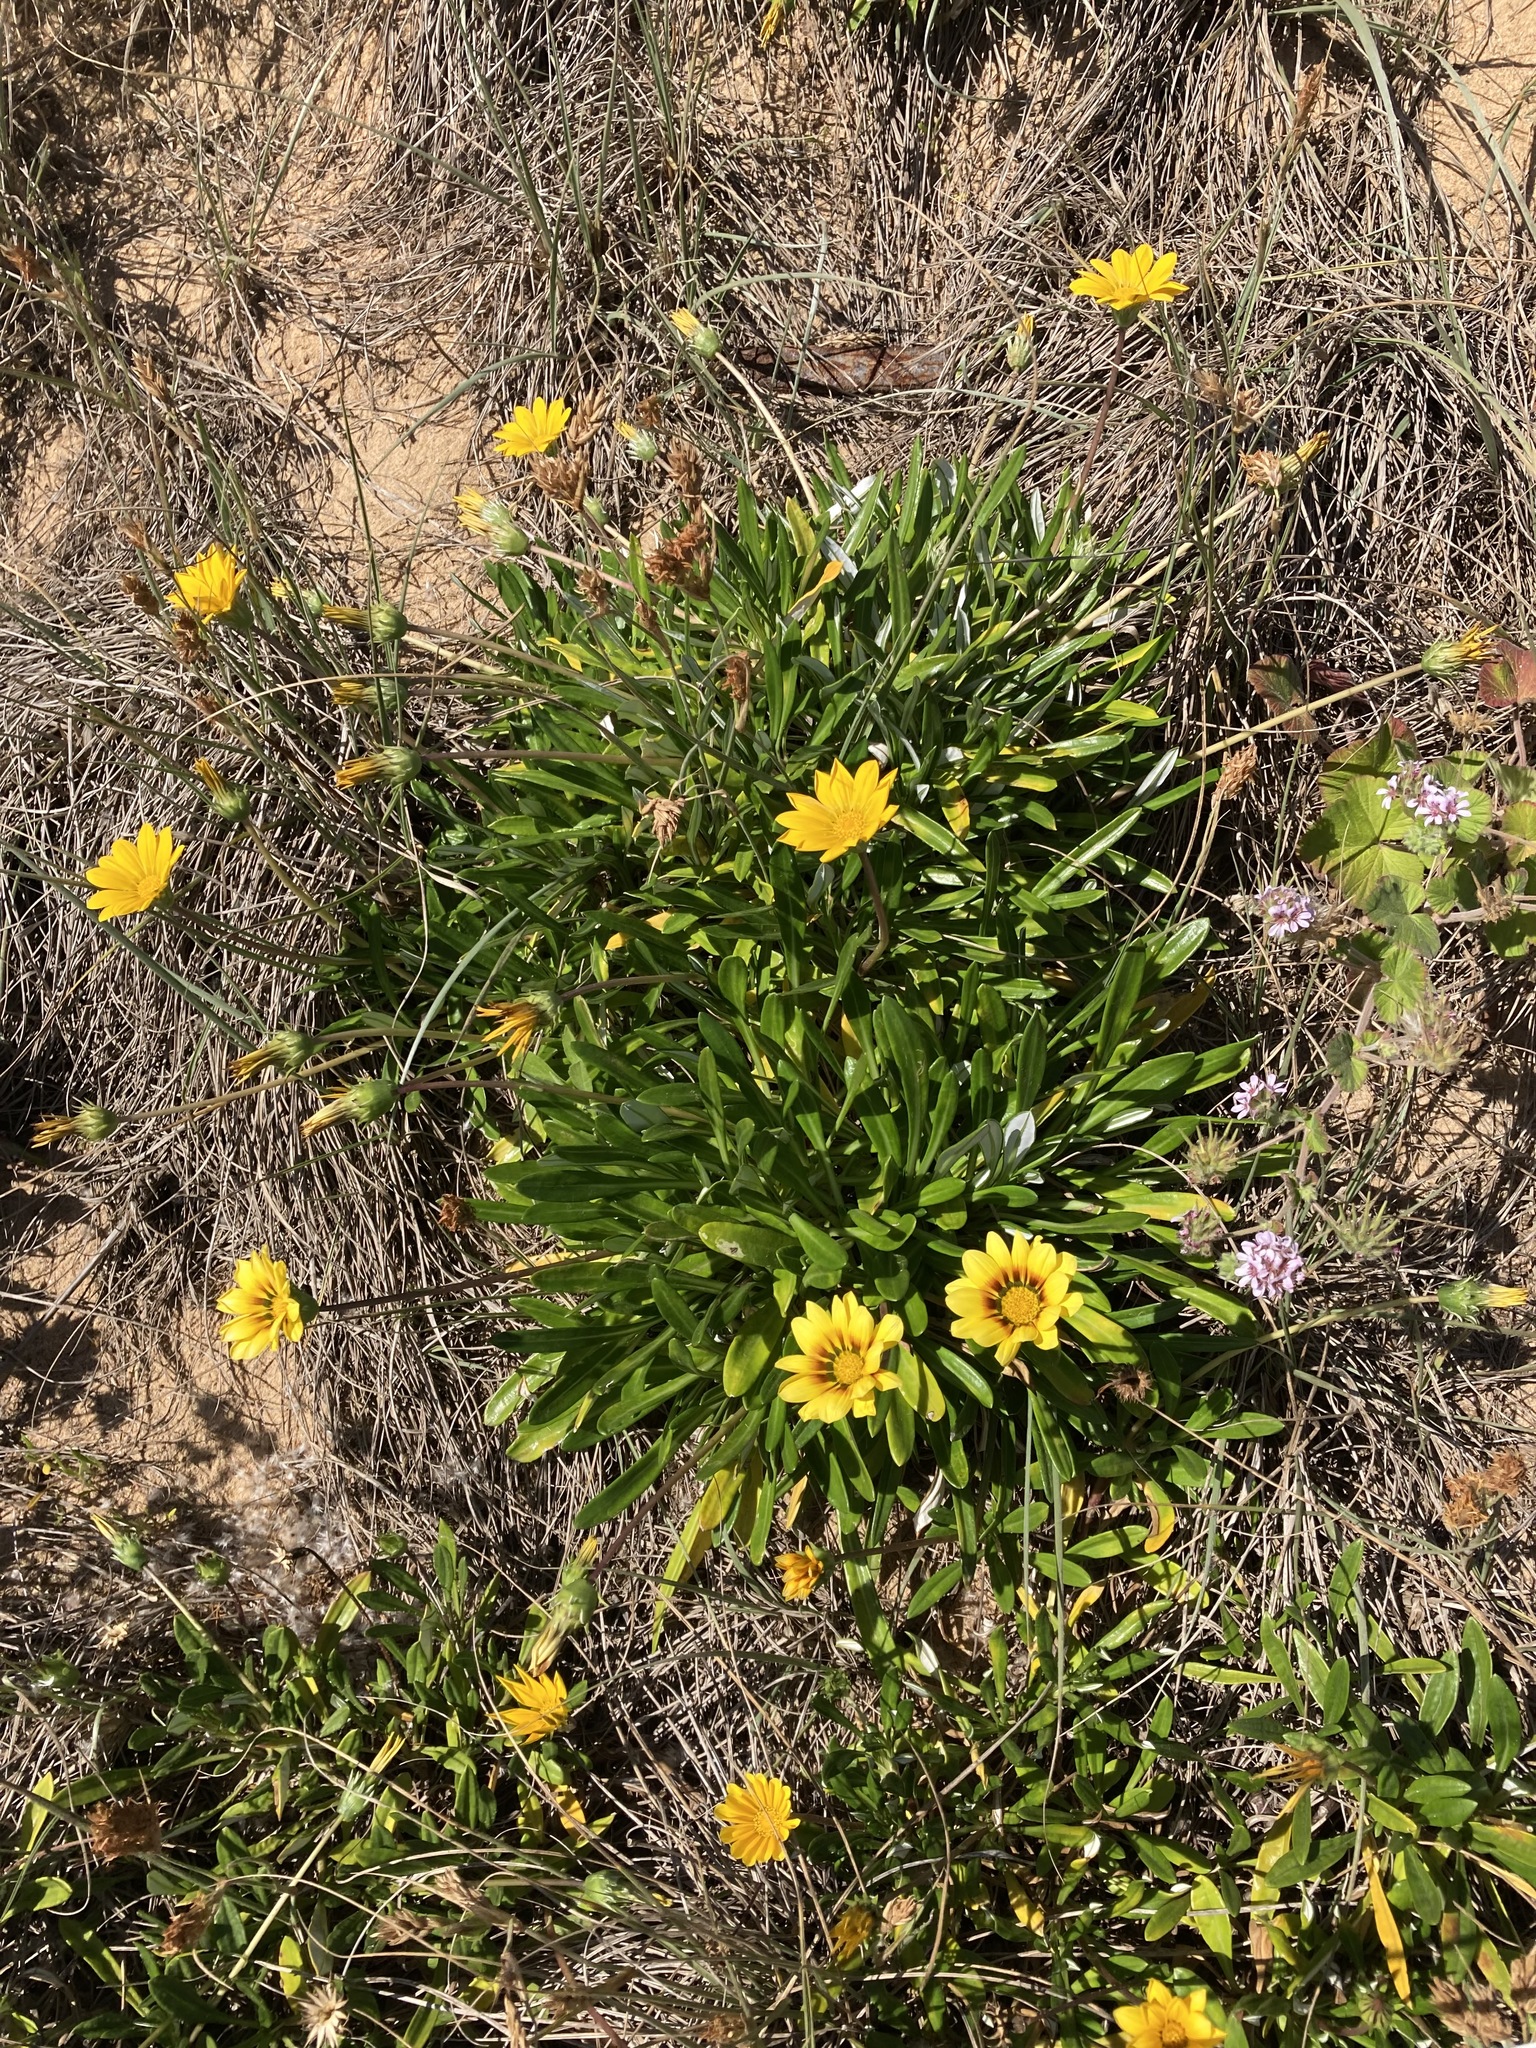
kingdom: Plantae
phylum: Tracheophyta
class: Magnoliopsida
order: Asterales
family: Asteraceae
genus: Gazania
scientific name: Gazania splendens
